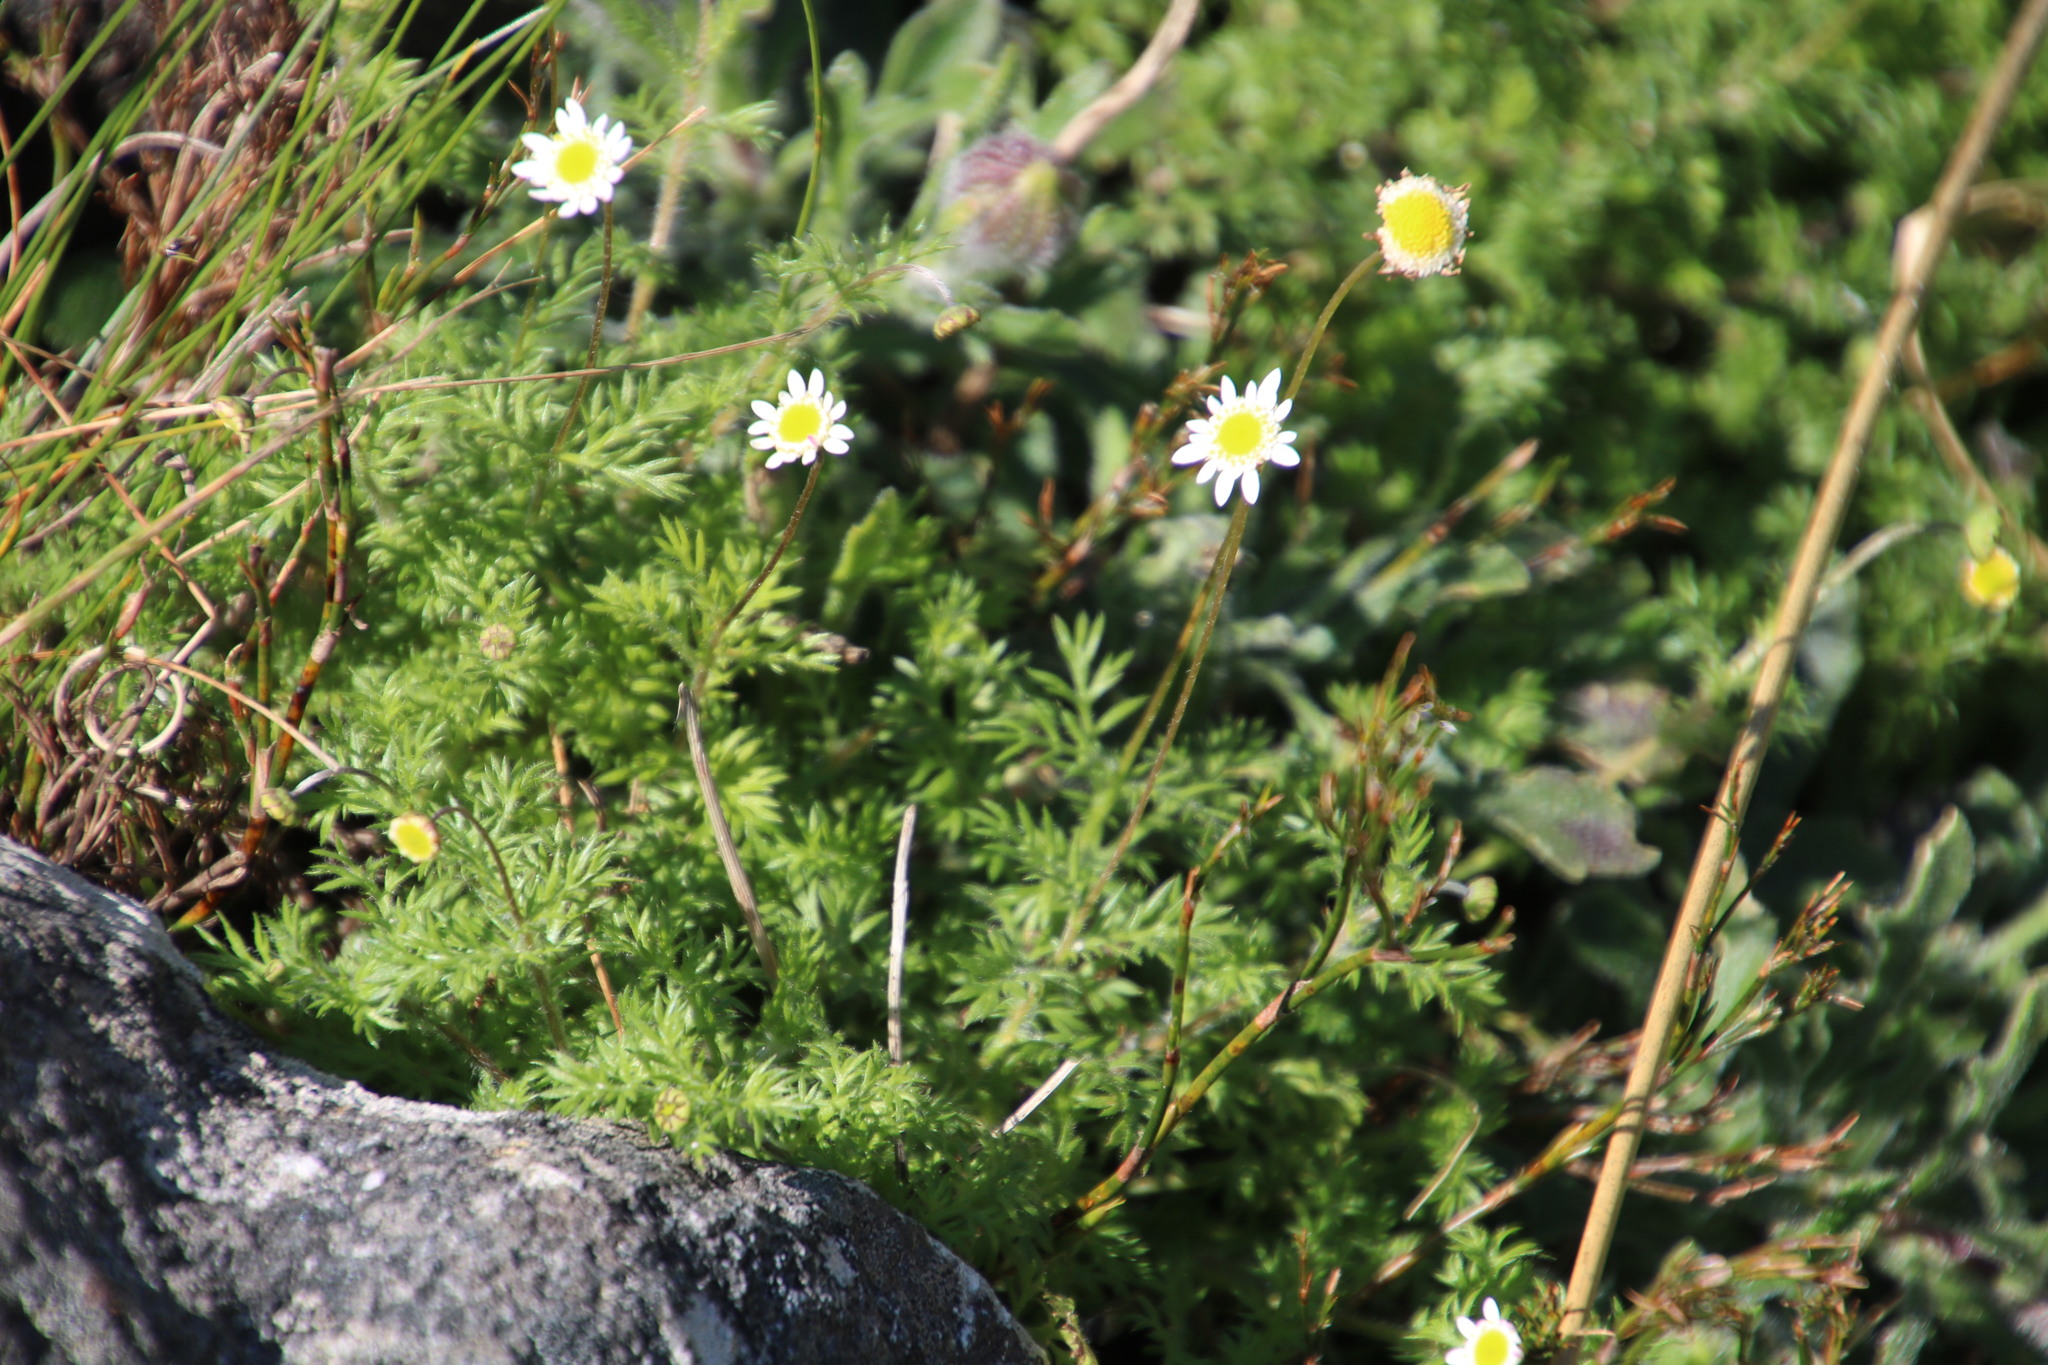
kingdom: Plantae
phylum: Tracheophyta
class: Magnoliopsida
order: Asterales
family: Asteraceae
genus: Cotula
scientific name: Cotula turbinata
